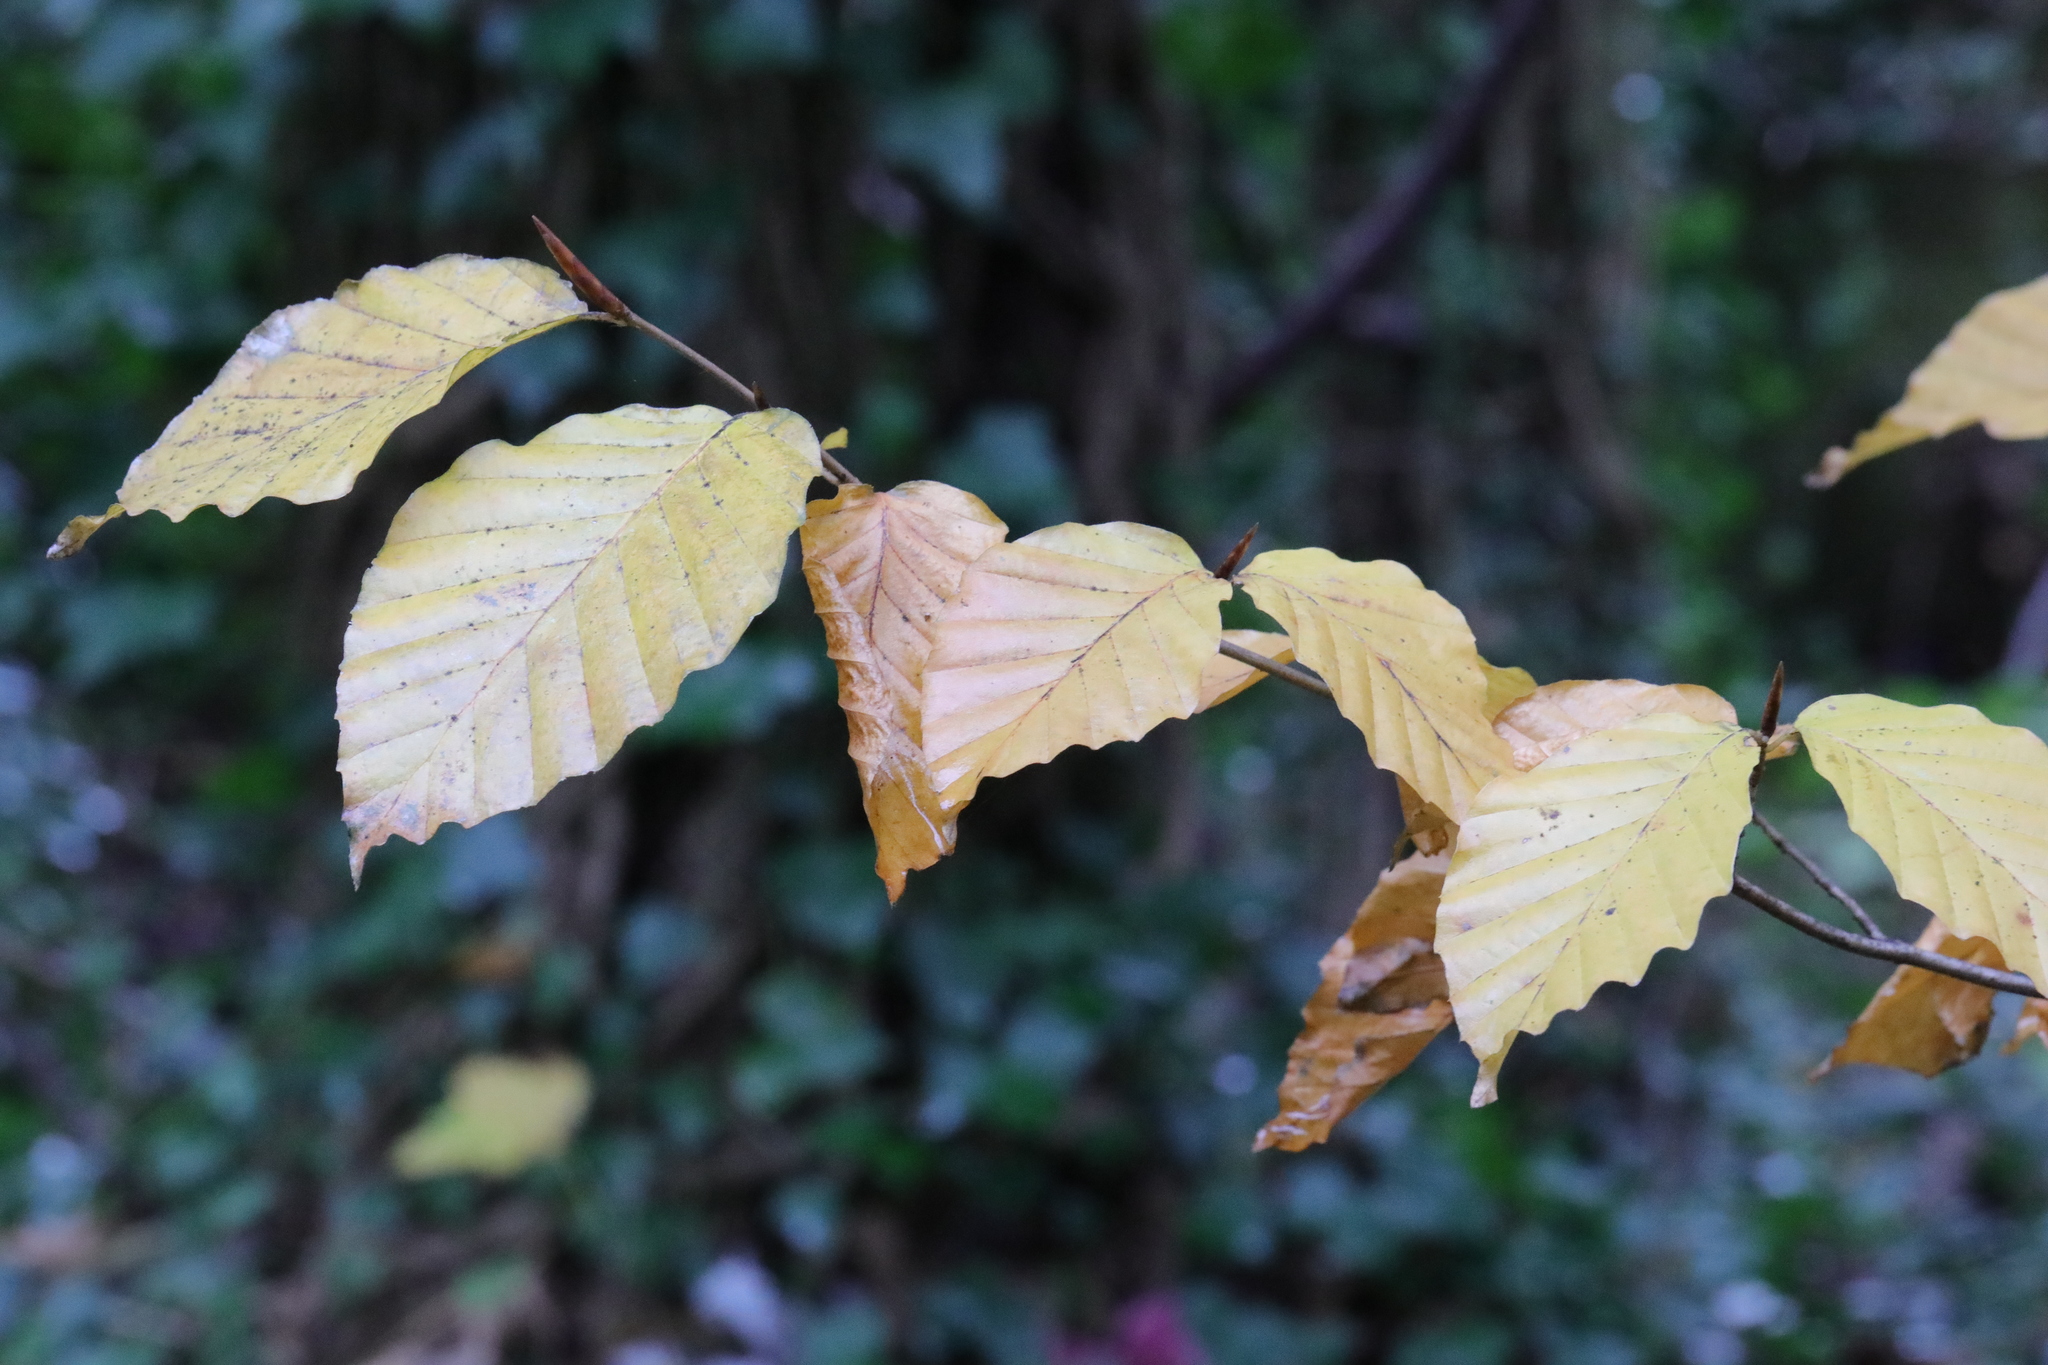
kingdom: Plantae
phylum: Tracheophyta
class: Magnoliopsida
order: Fagales
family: Fagaceae
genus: Fagus
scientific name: Fagus sylvatica
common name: Beech
